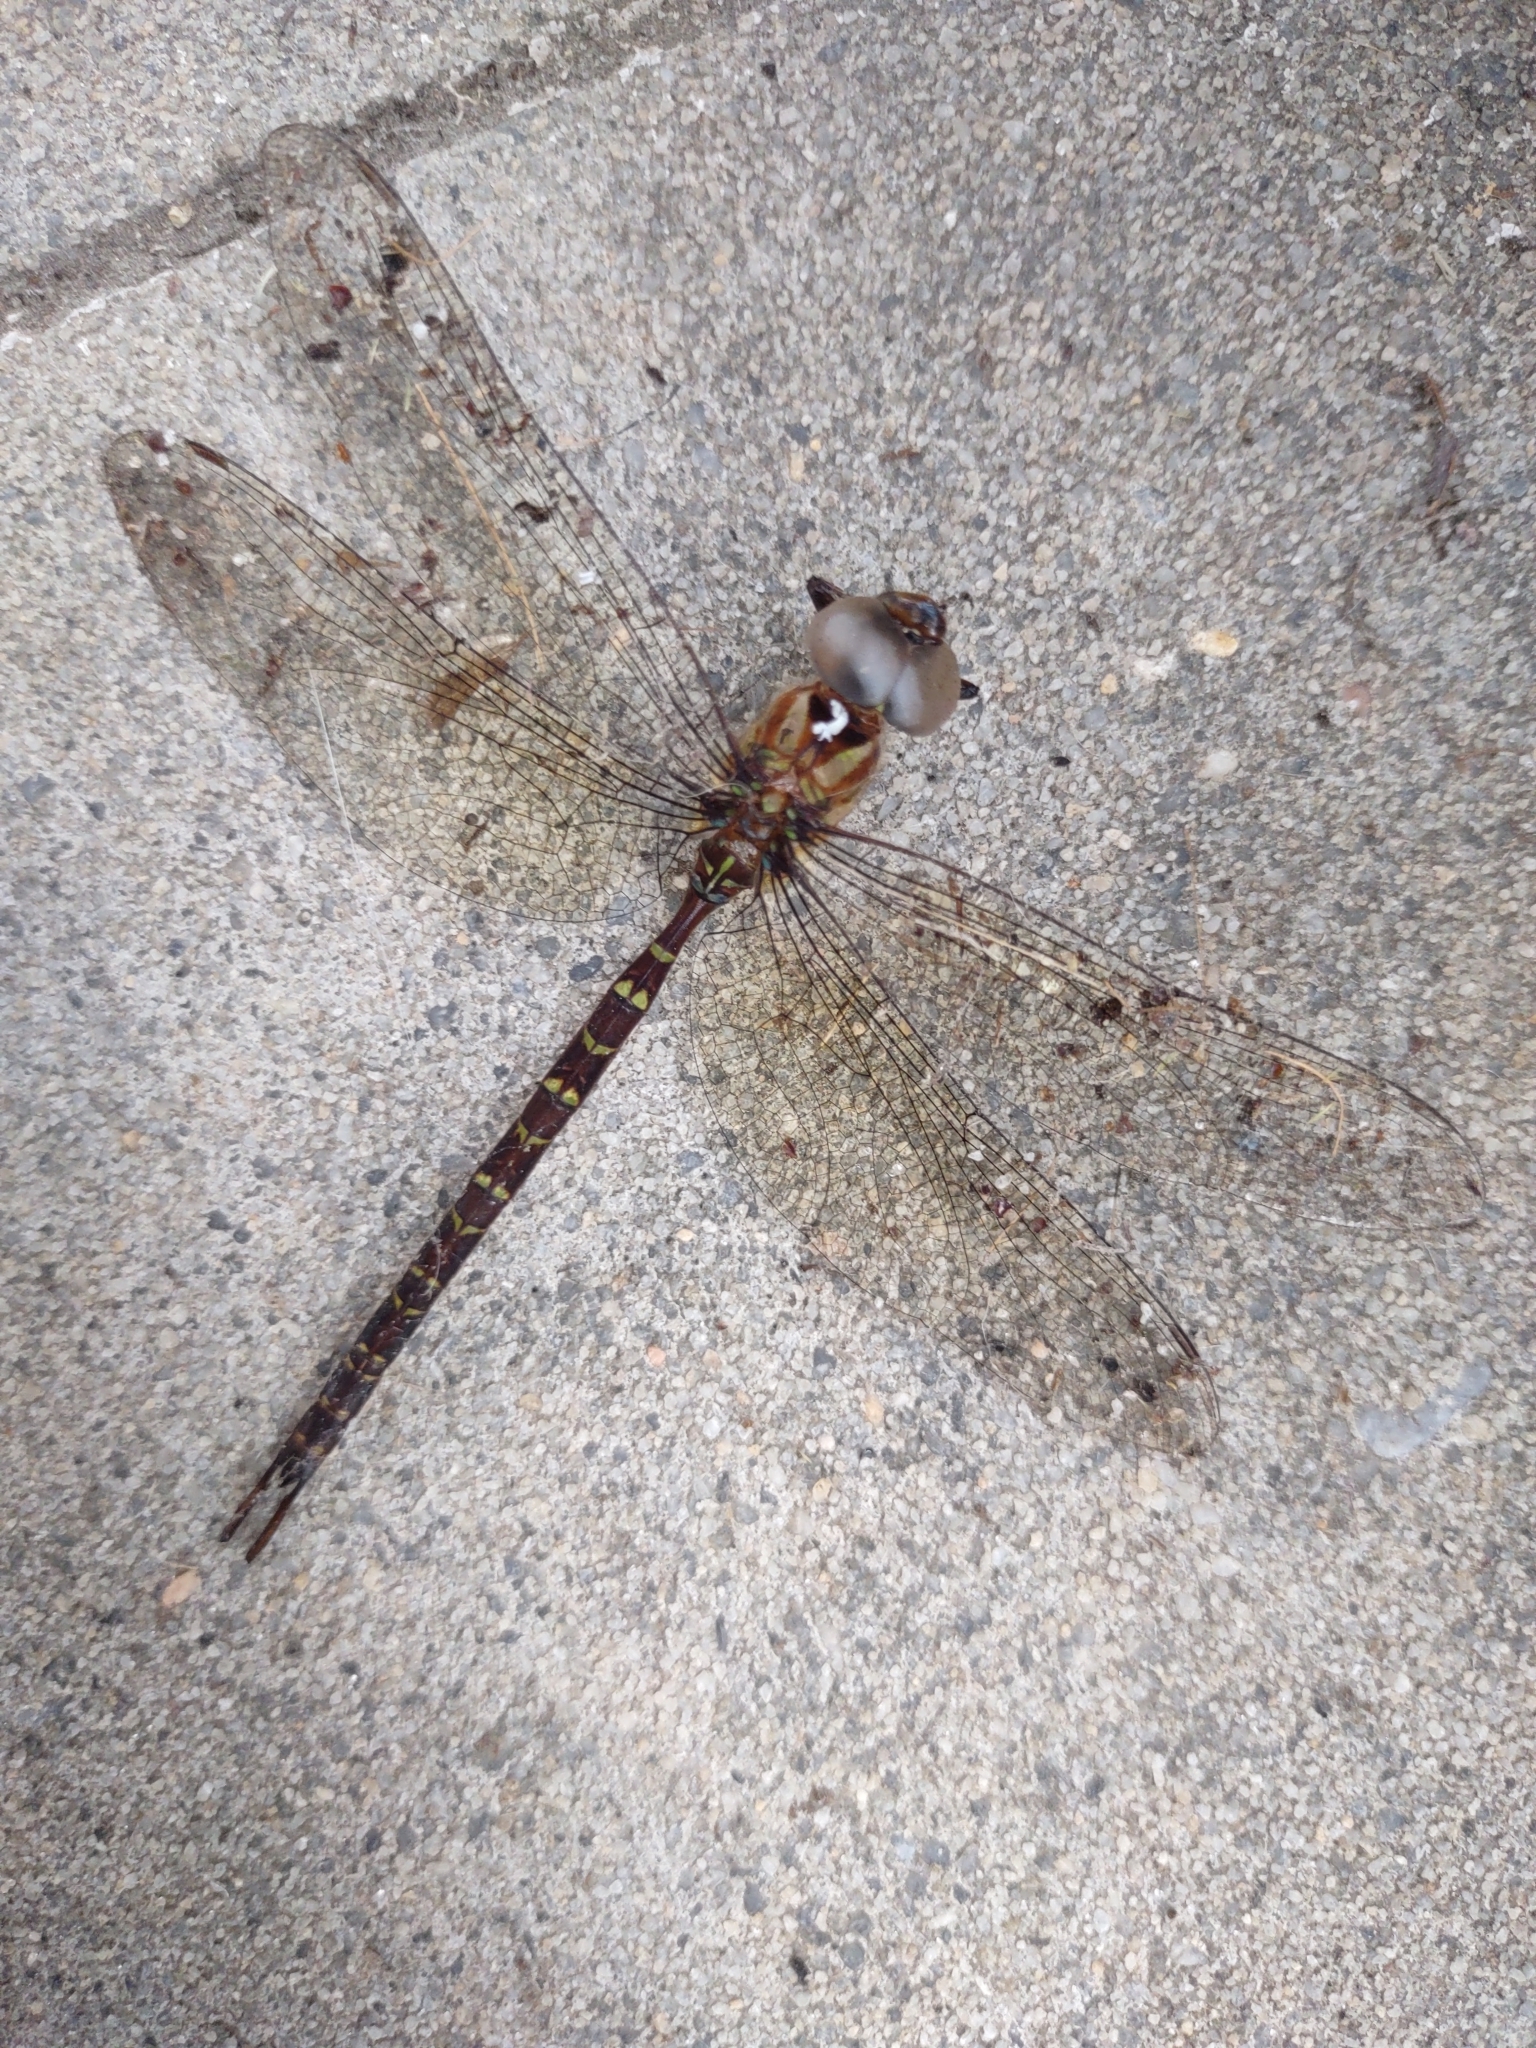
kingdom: Animalia
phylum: Arthropoda
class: Insecta
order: Odonata
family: Aeshnidae
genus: Triacanthagyna
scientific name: Triacanthagyna trifida
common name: Phantom darner
